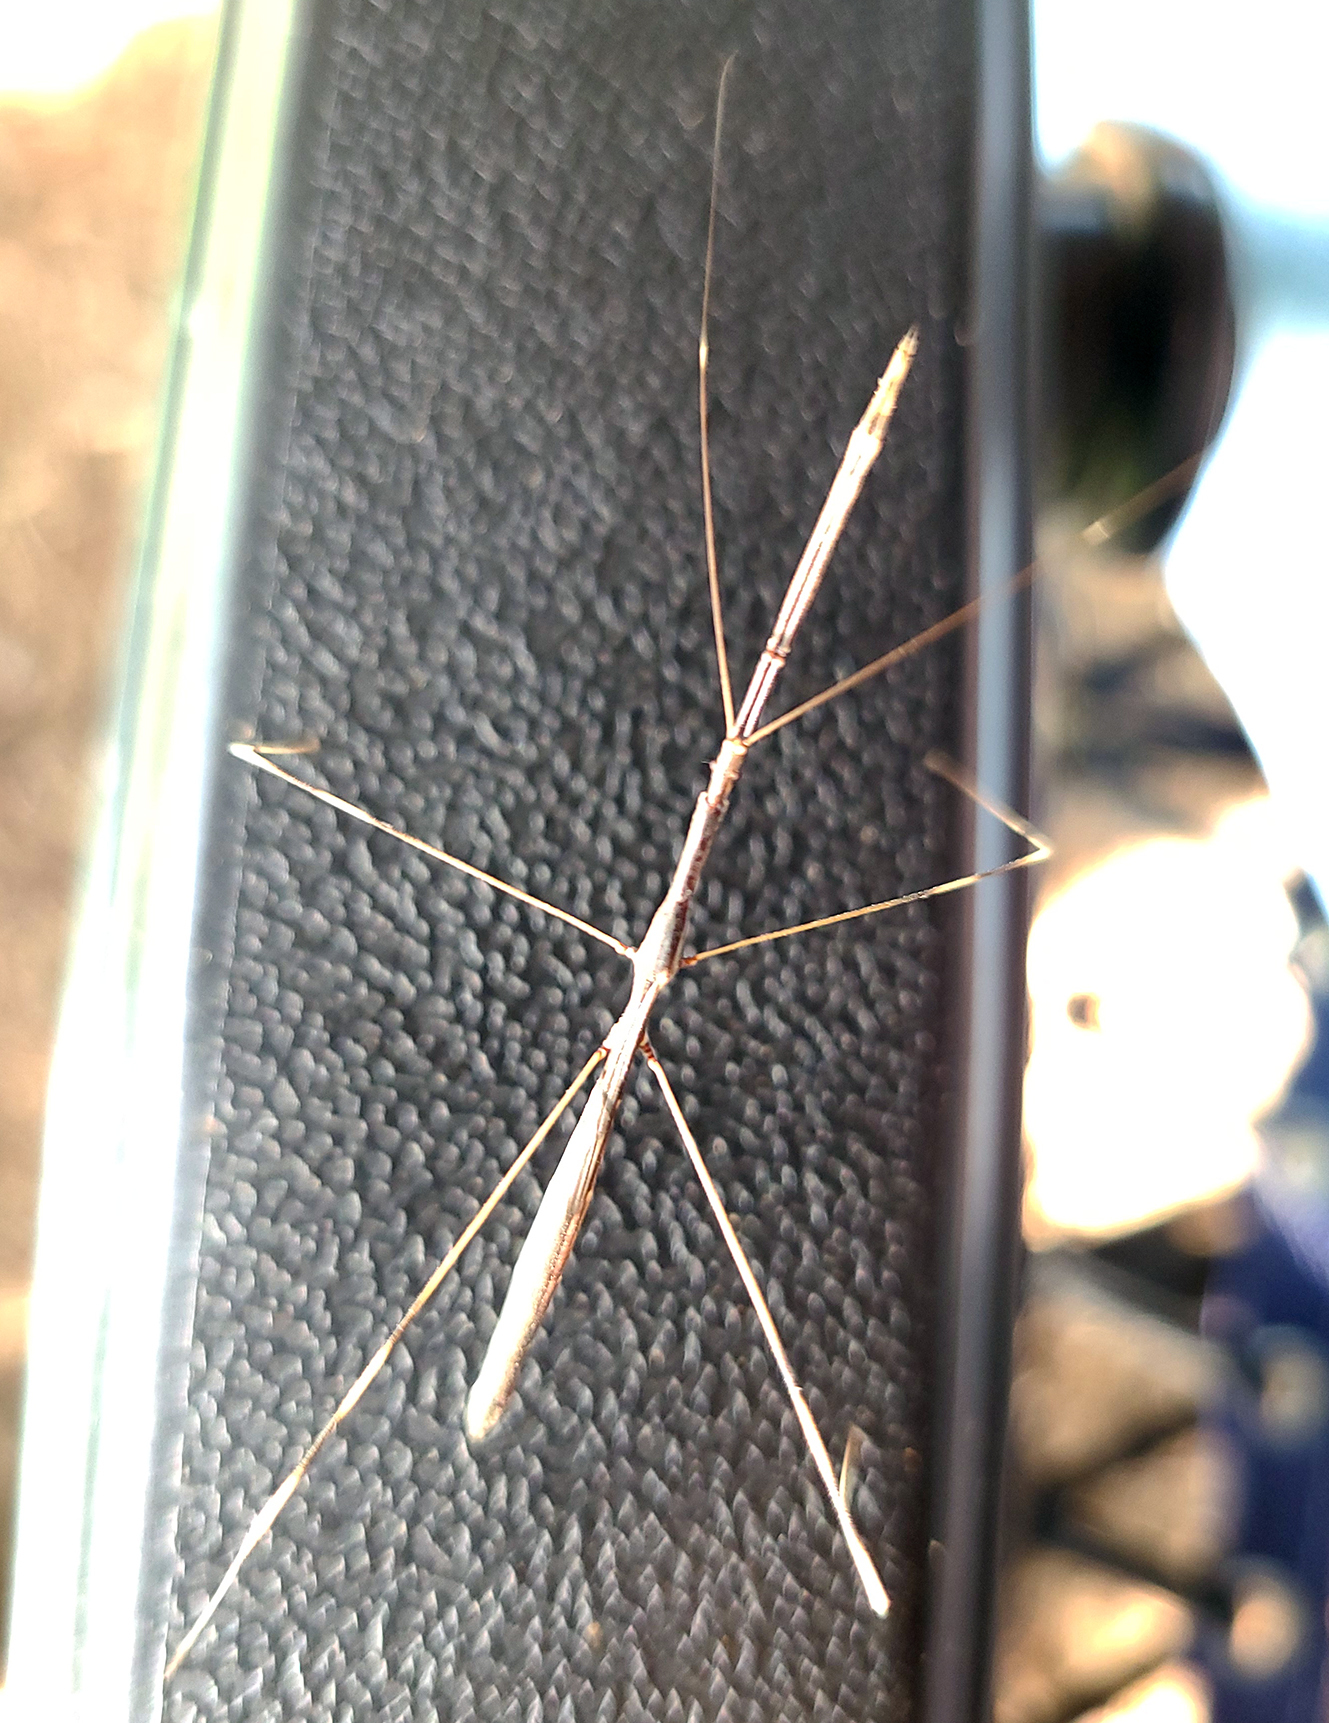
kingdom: Animalia
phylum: Arthropoda
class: Insecta
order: Hemiptera
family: Reduviidae
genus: Emesaya
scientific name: Emesaya brevipennis
